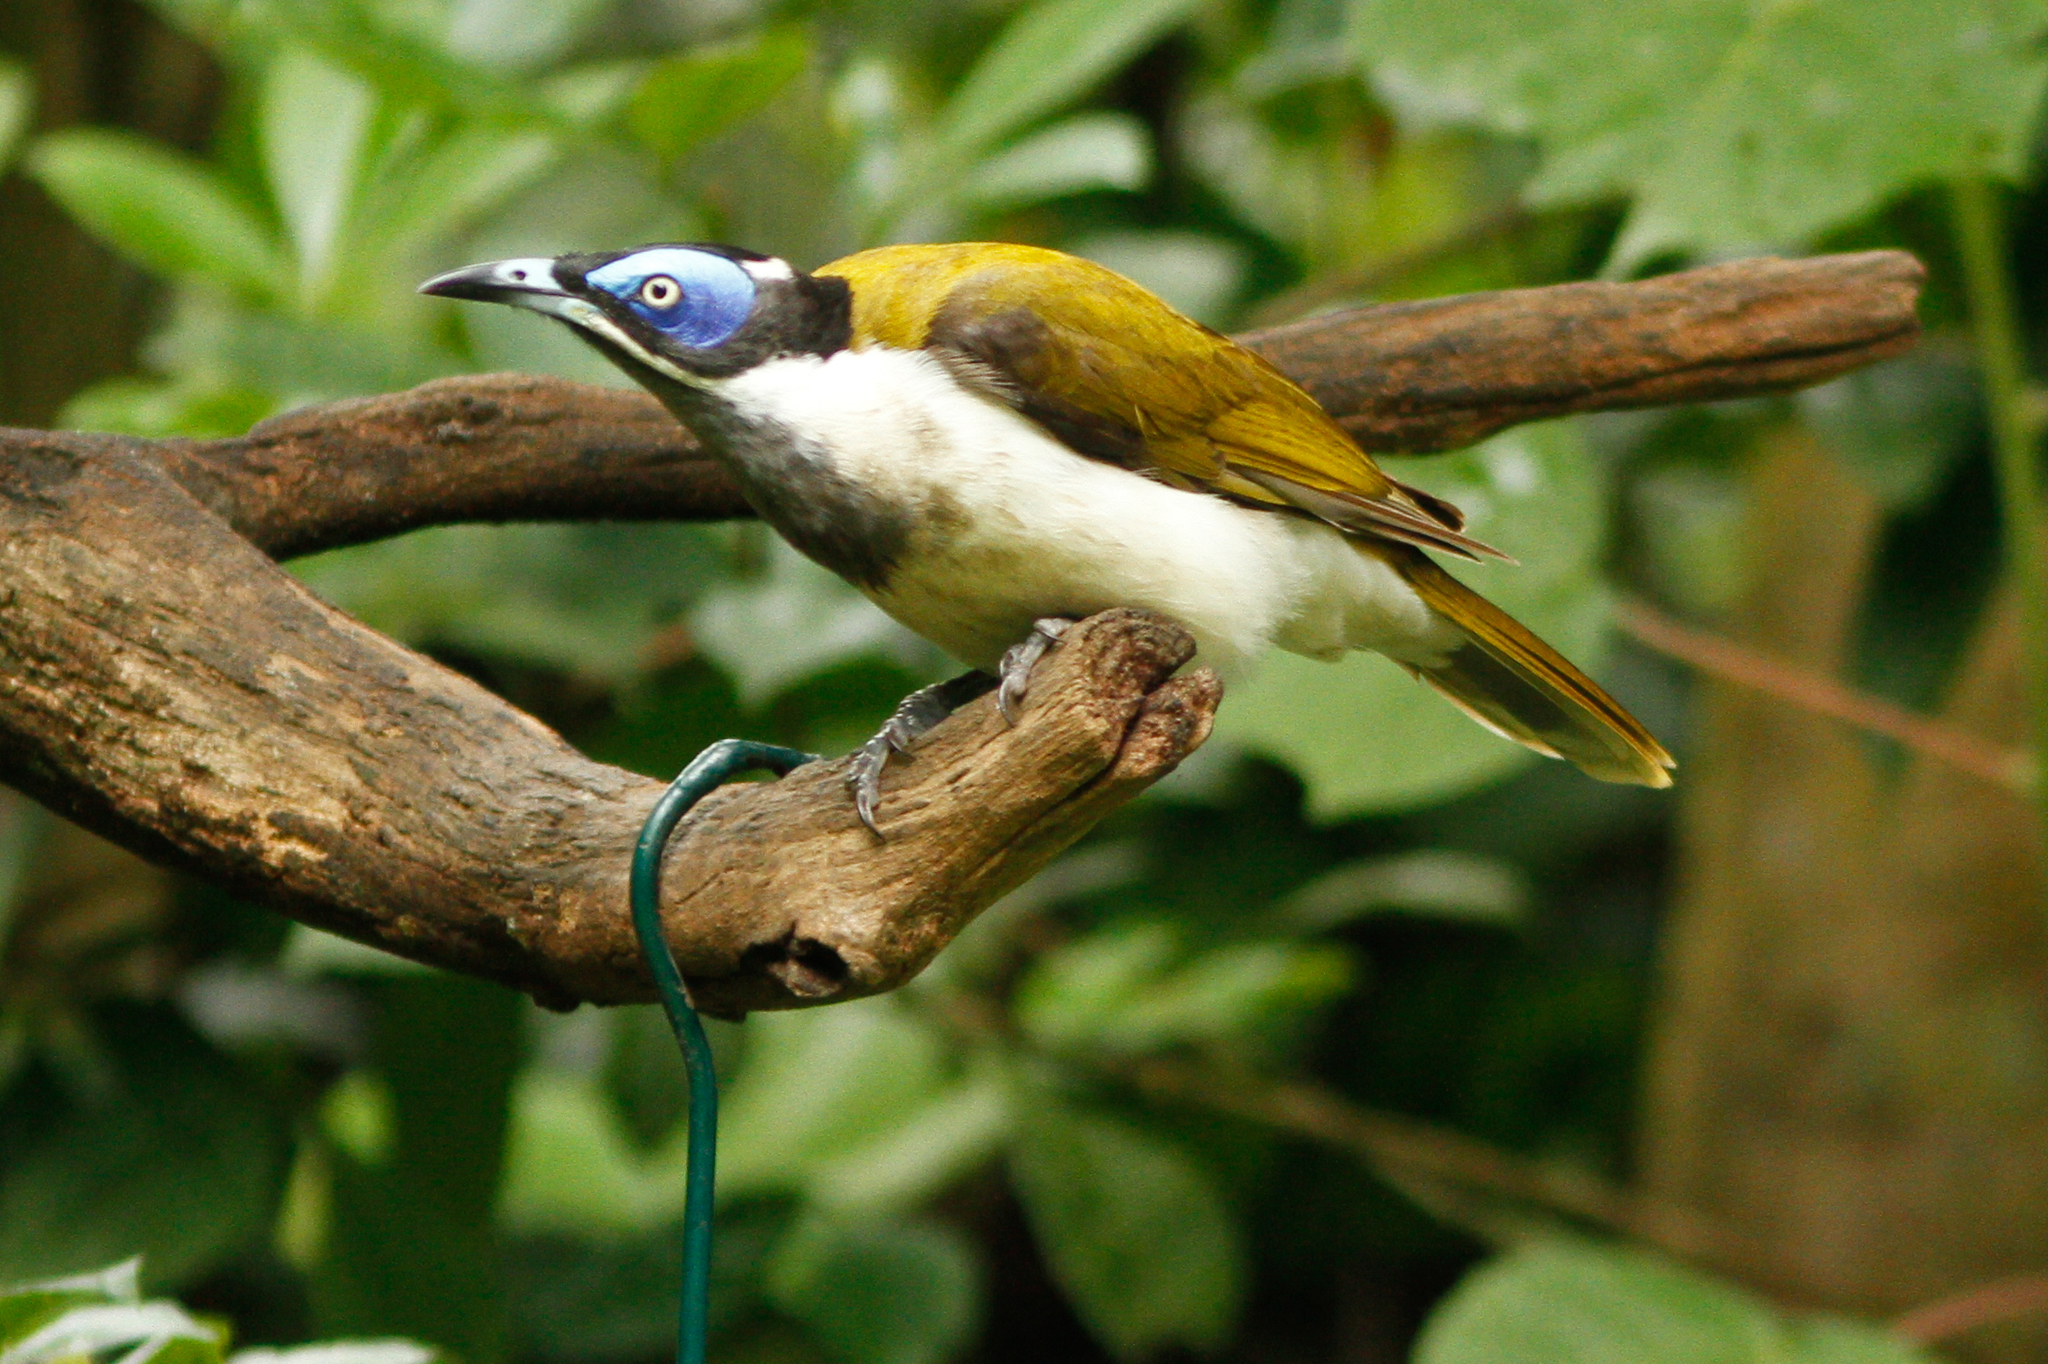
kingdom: Animalia
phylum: Chordata
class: Aves
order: Passeriformes
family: Meliphagidae
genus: Entomyzon
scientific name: Entomyzon cyanotis
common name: Blue-faced honeyeater
